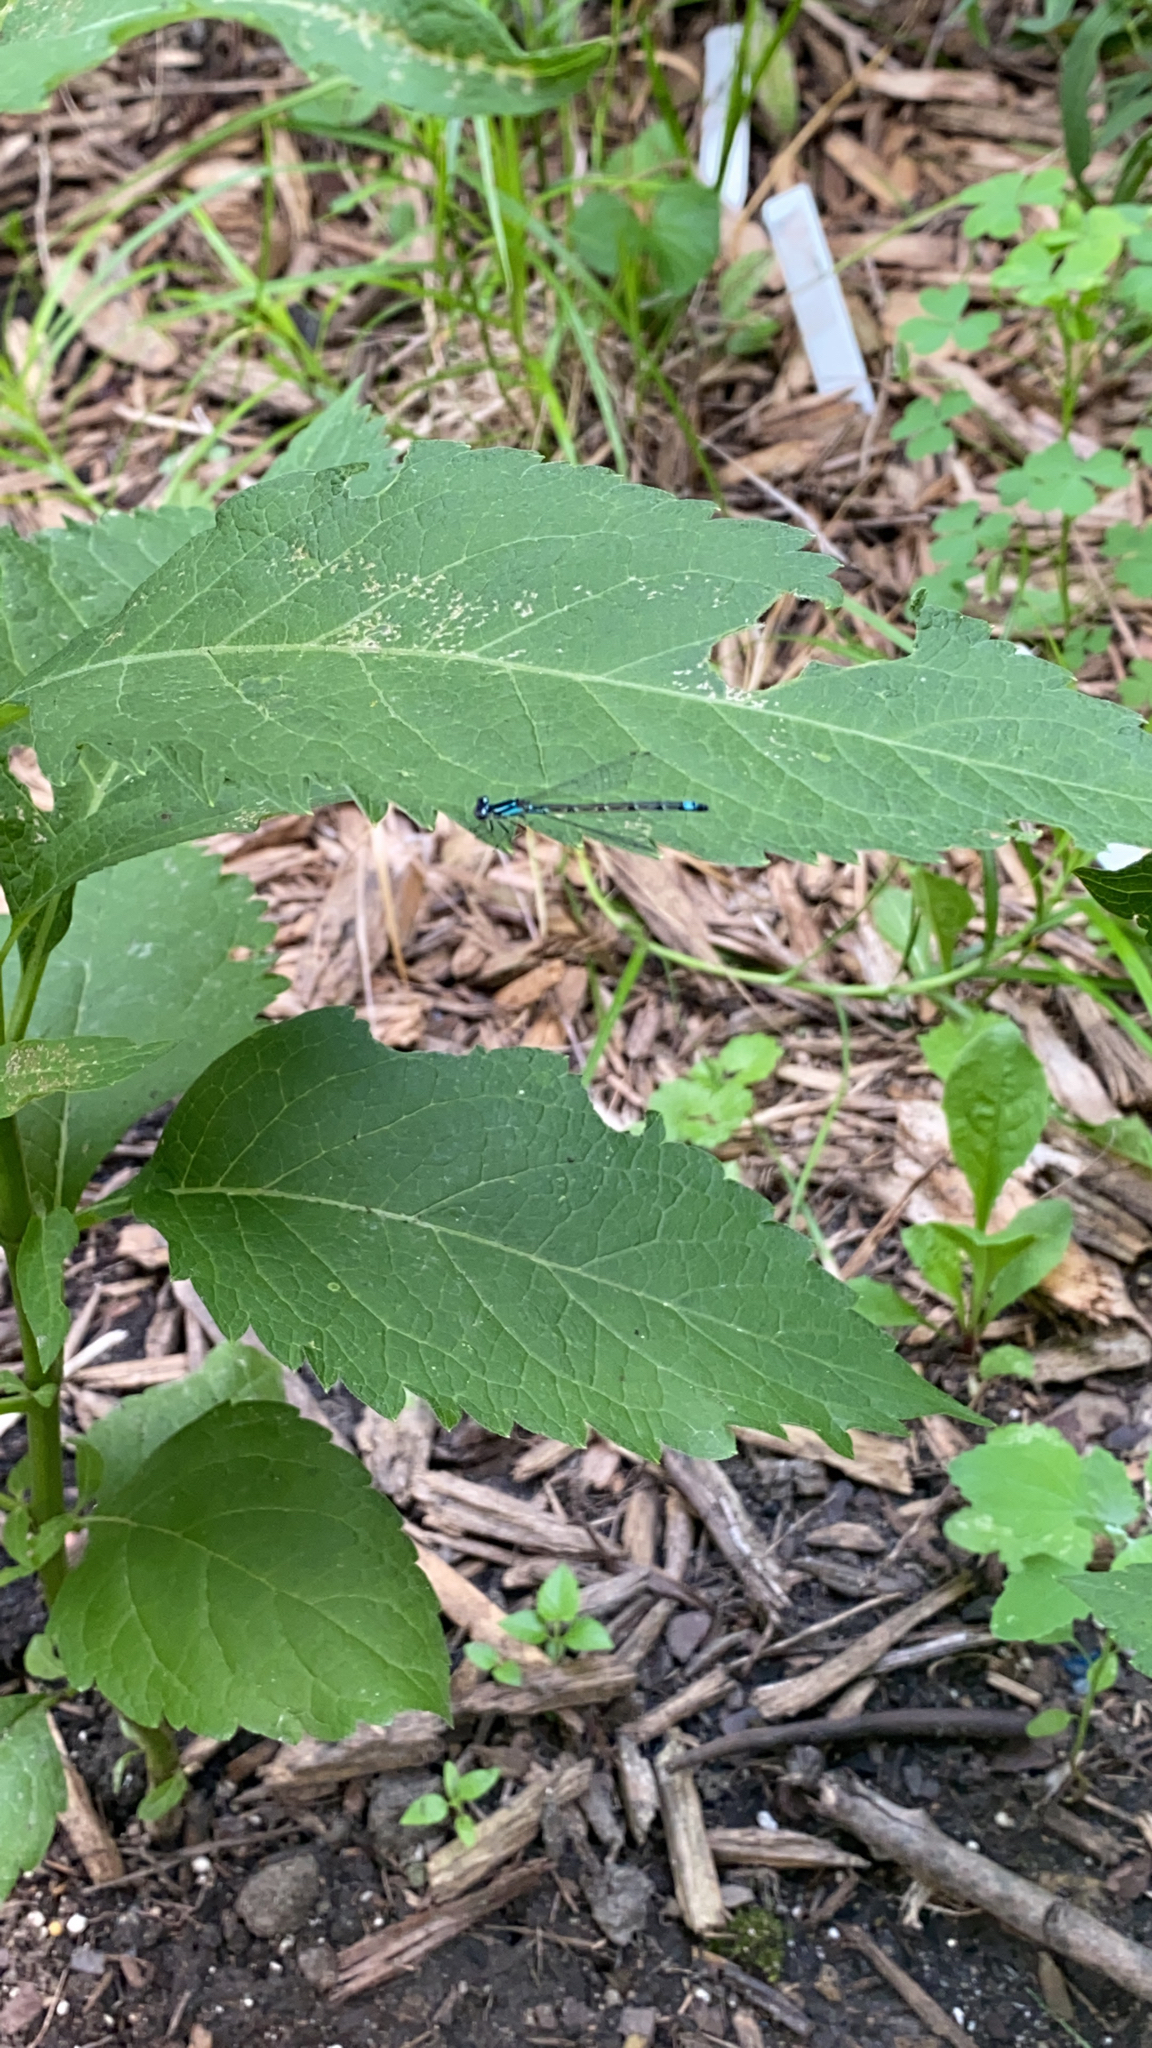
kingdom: Animalia
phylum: Arthropoda
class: Insecta
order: Odonata
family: Coenagrionidae
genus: Enallagma
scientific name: Enallagma geminatum
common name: Skimming bluet
